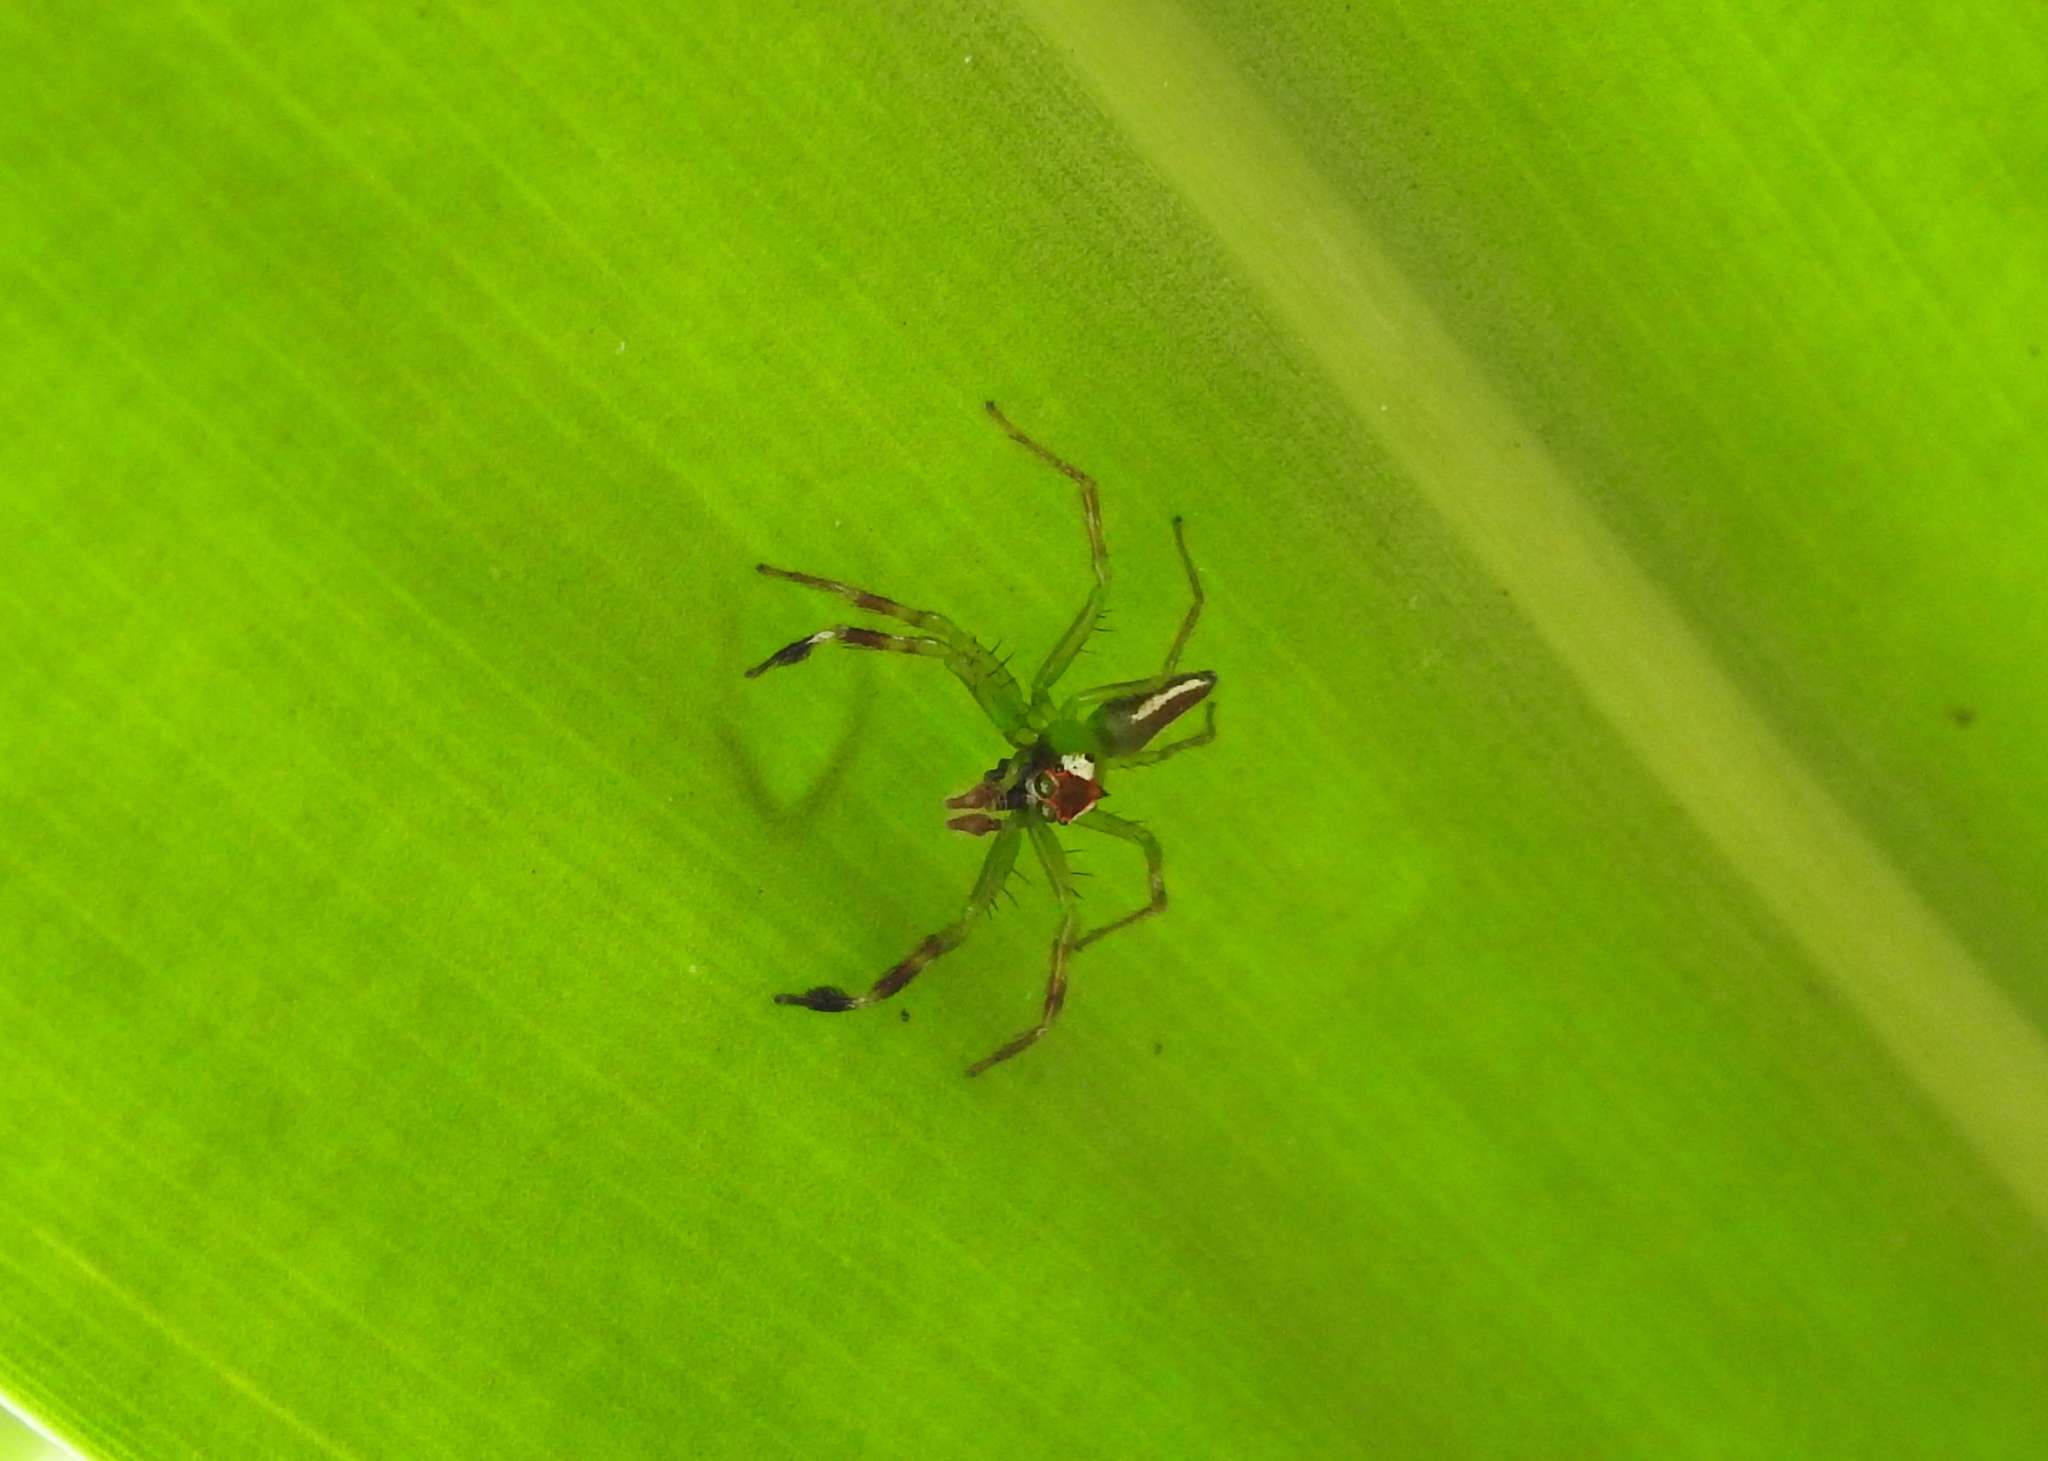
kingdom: Animalia
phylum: Arthropoda
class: Arachnida
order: Araneae
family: Salticidae
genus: Epeus
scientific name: Epeus flavobilineatus
